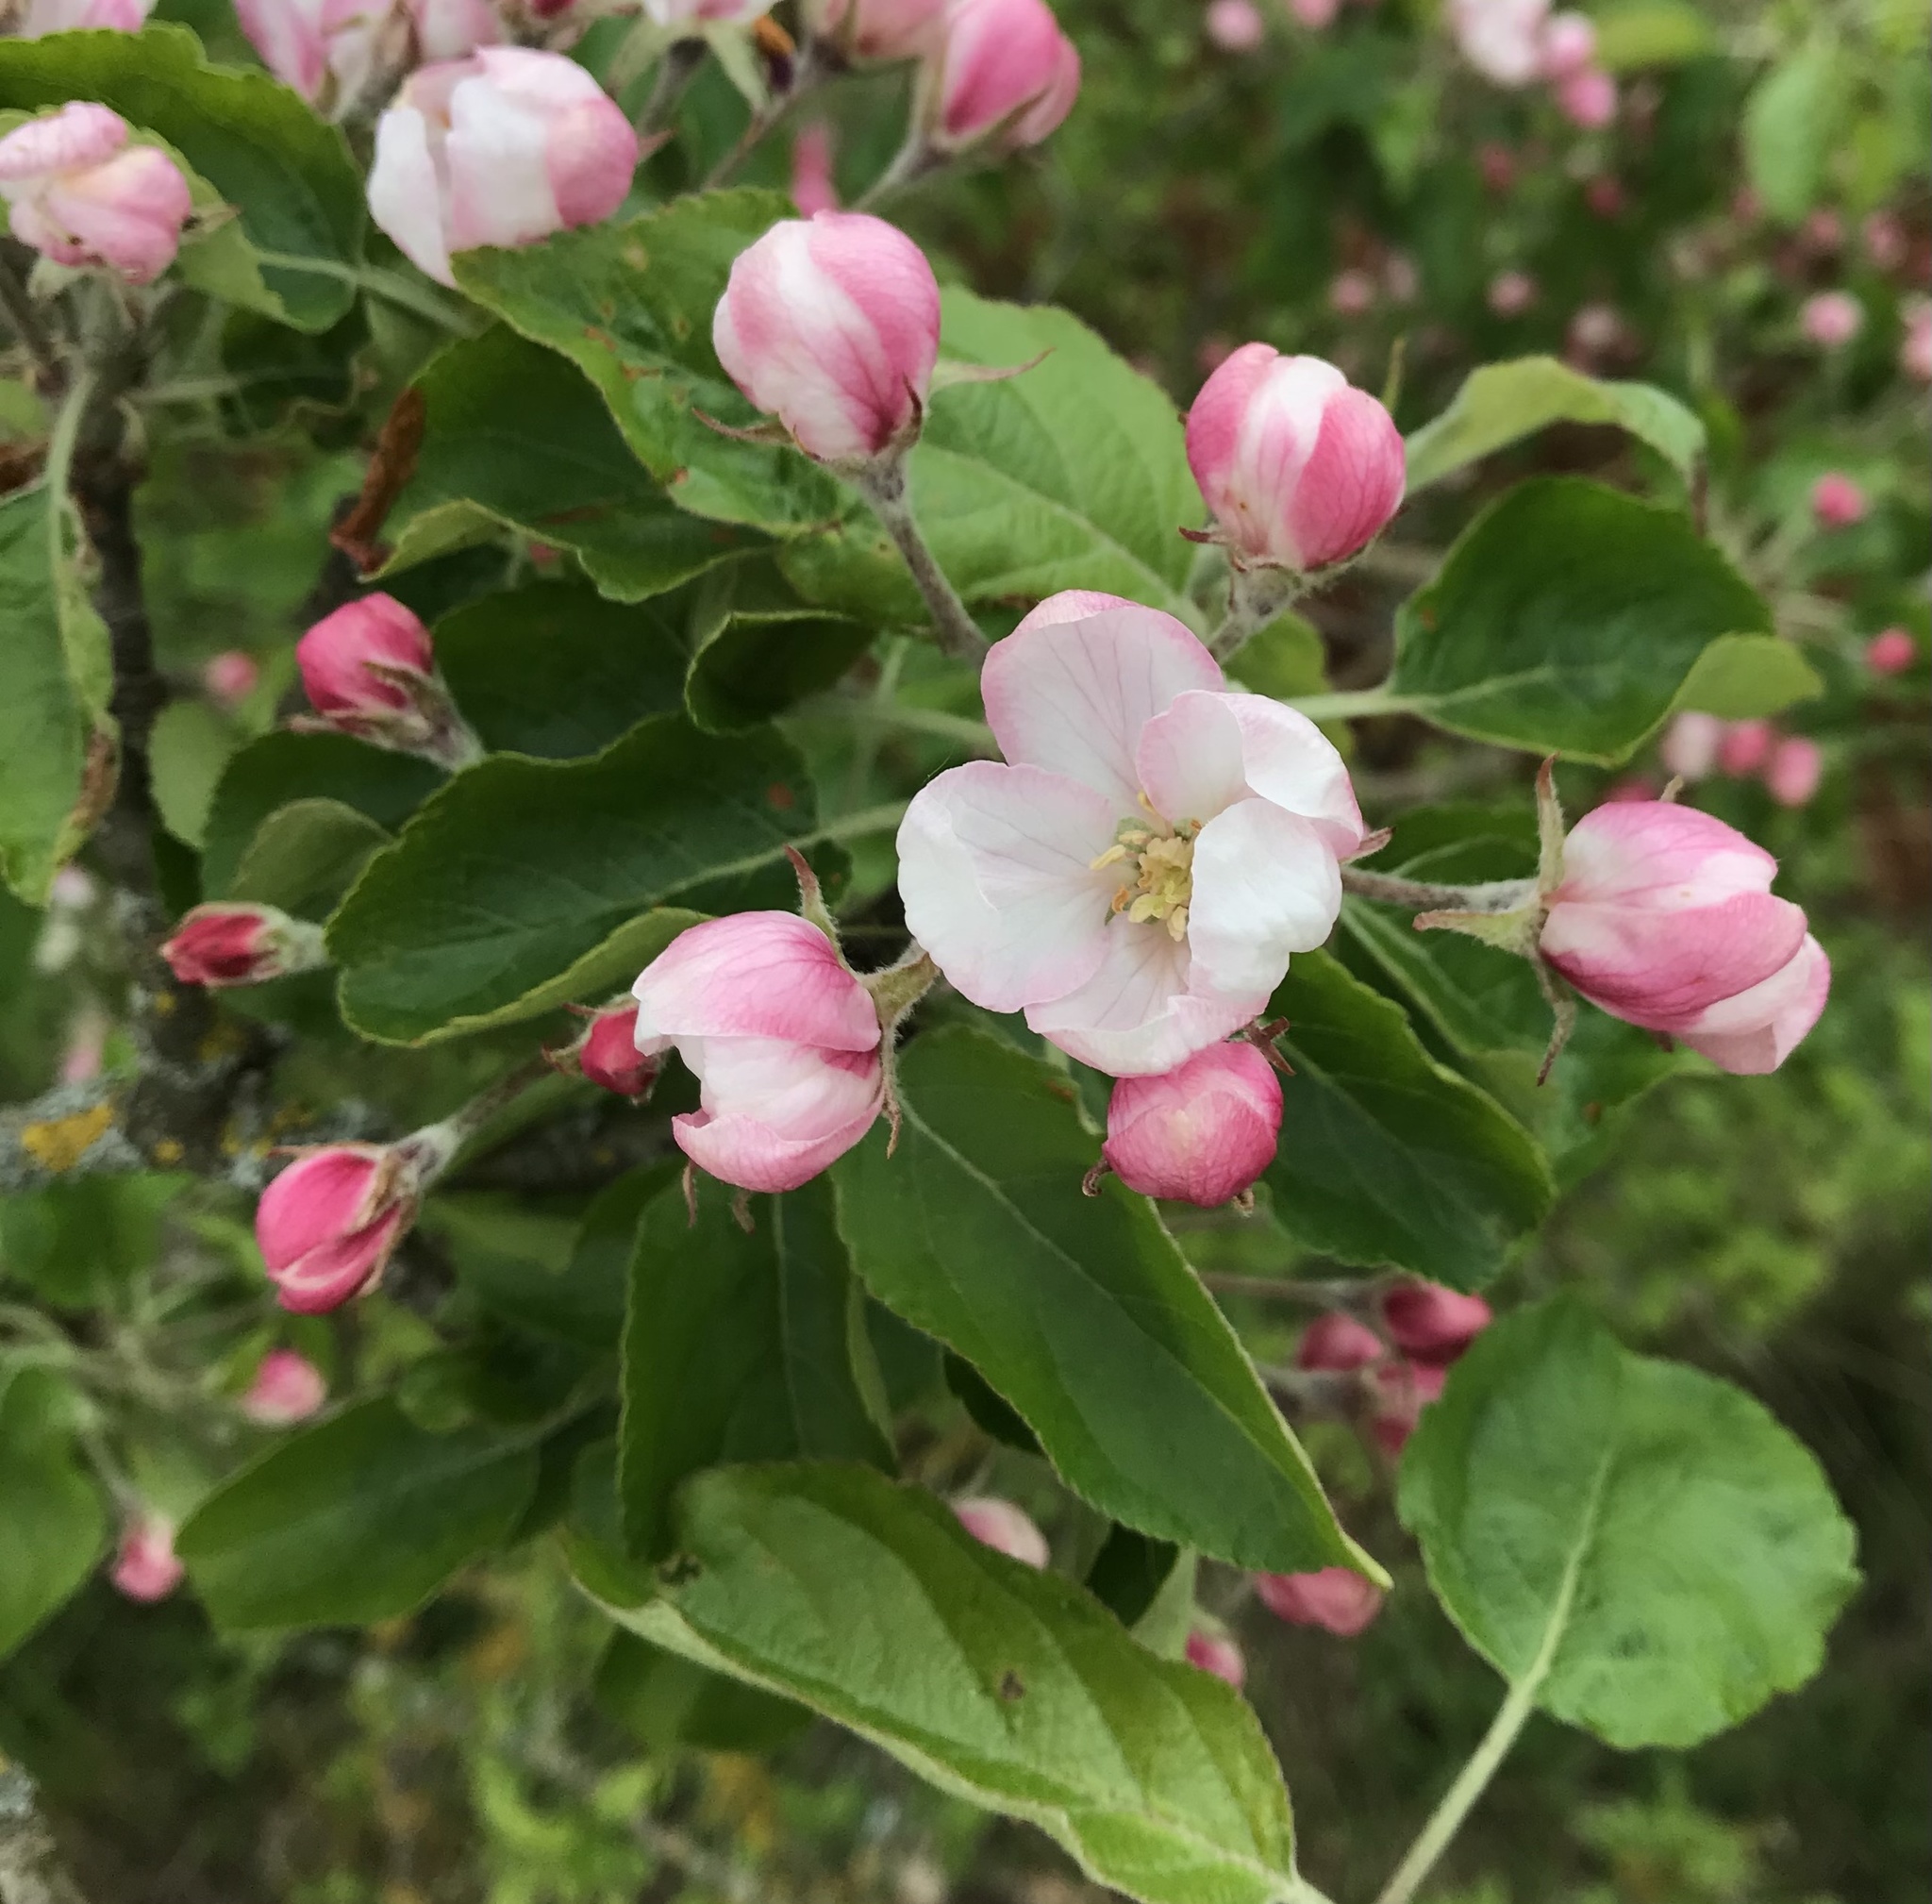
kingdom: Plantae
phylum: Tracheophyta
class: Magnoliopsida
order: Rosales
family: Rosaceae
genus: Malus
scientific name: Malus domestica
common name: Apple
